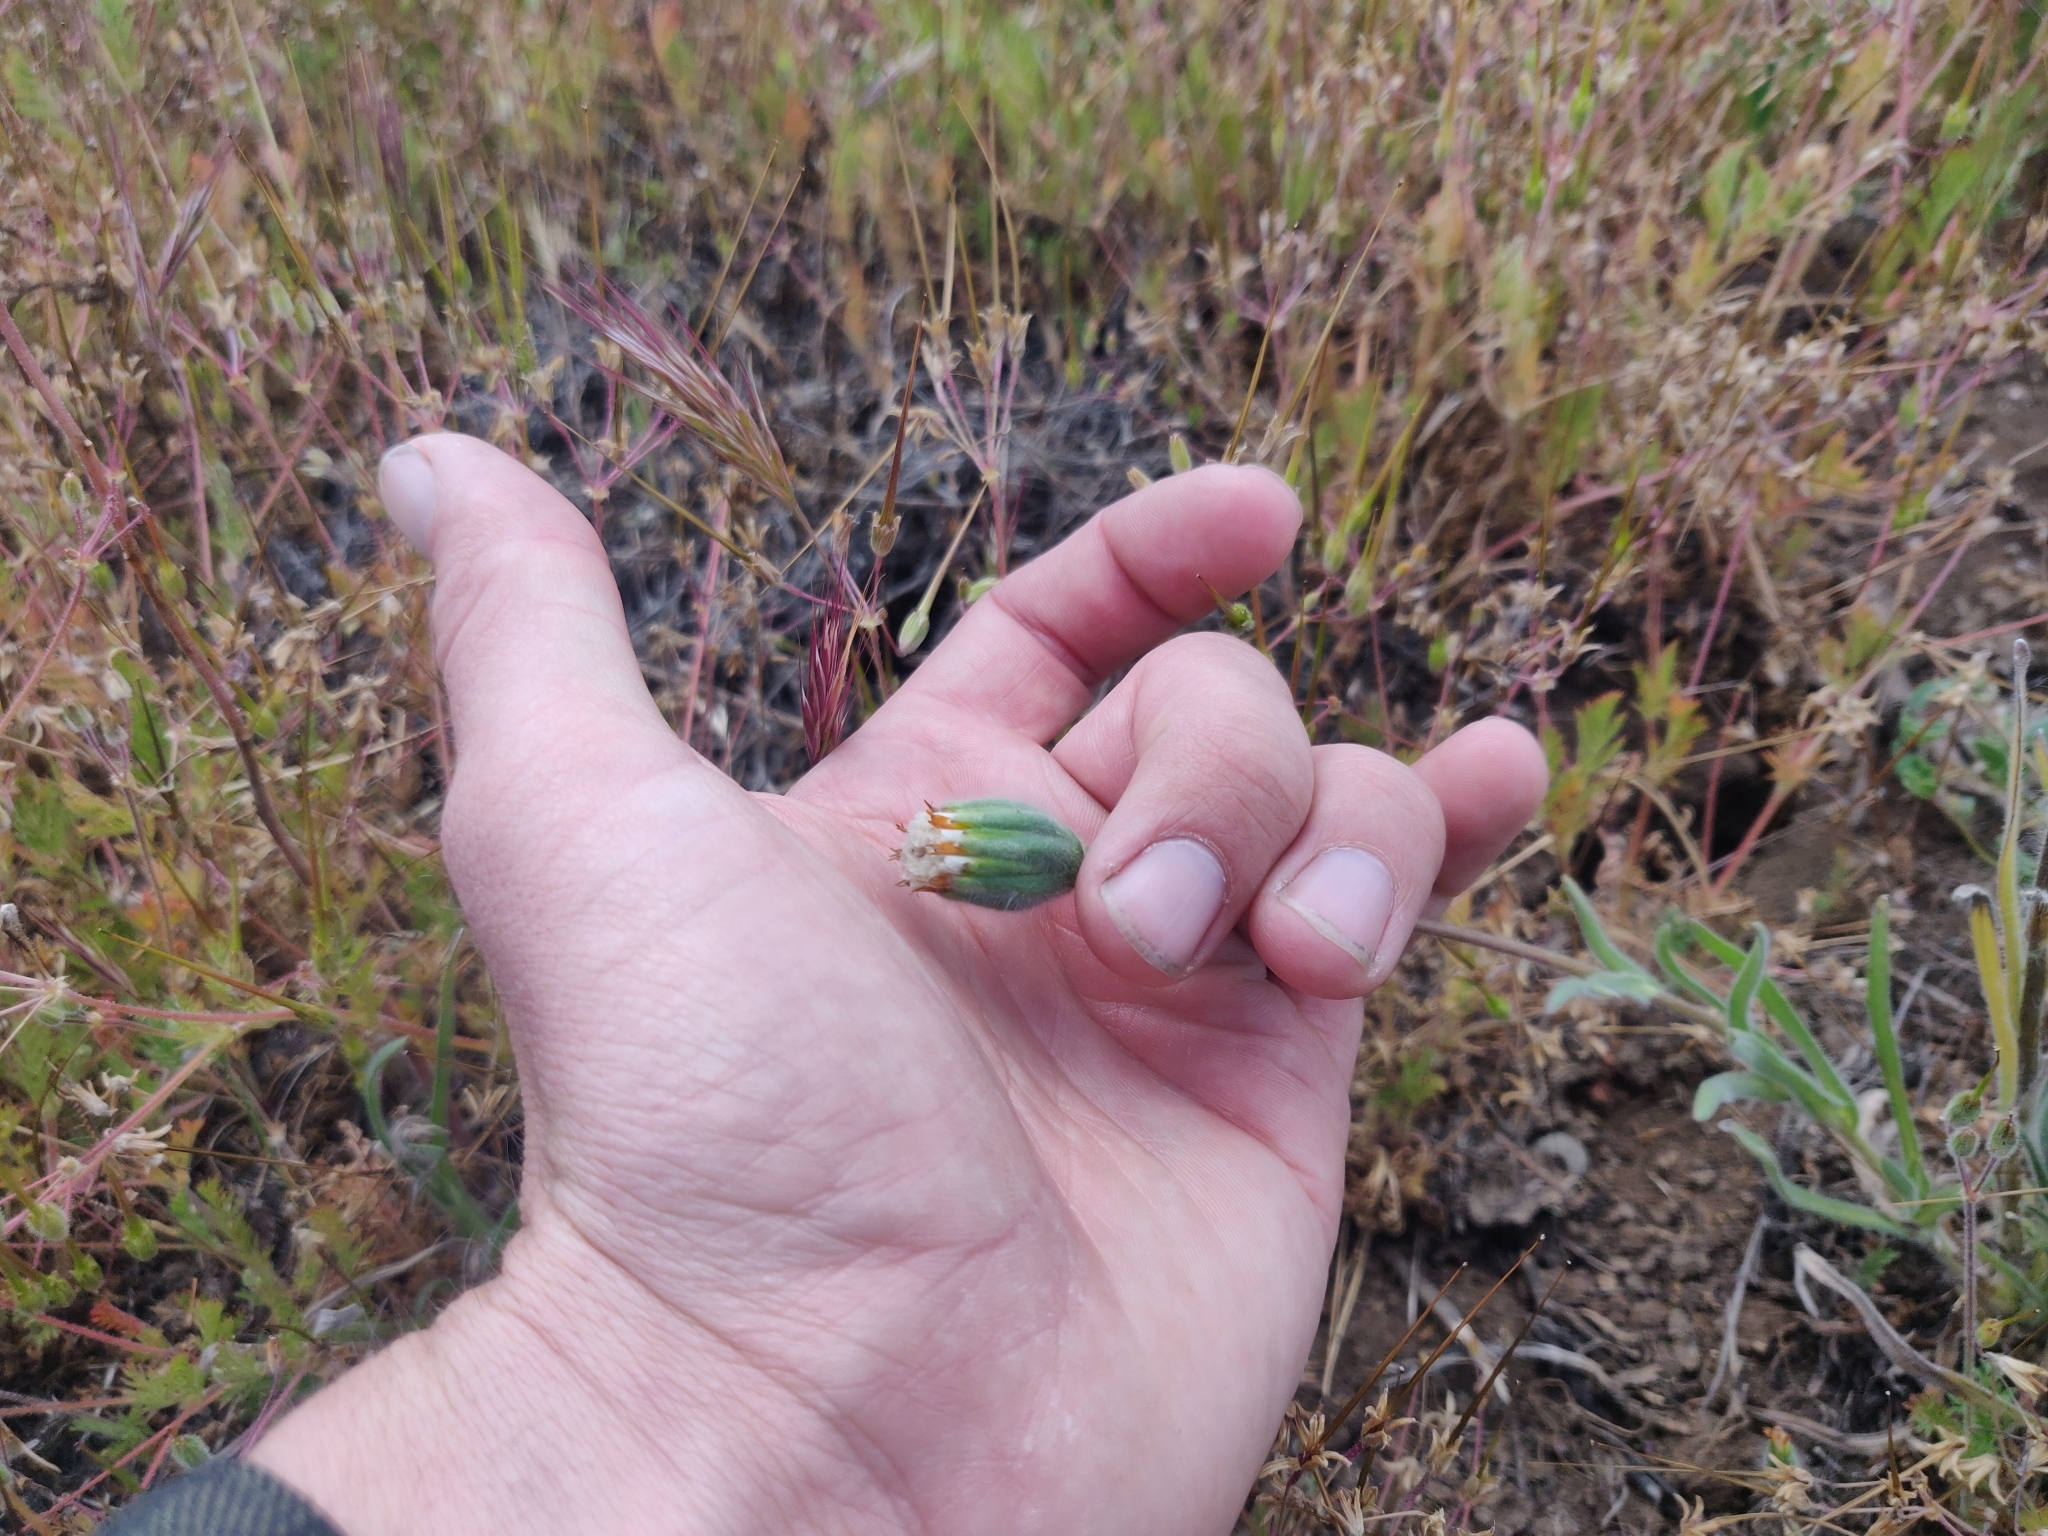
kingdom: Plantae
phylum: Tracheophyta
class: Magnoliopsida
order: Asterales
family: Asteraceae
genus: Achyrachaena
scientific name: Achyrachaena mollis
